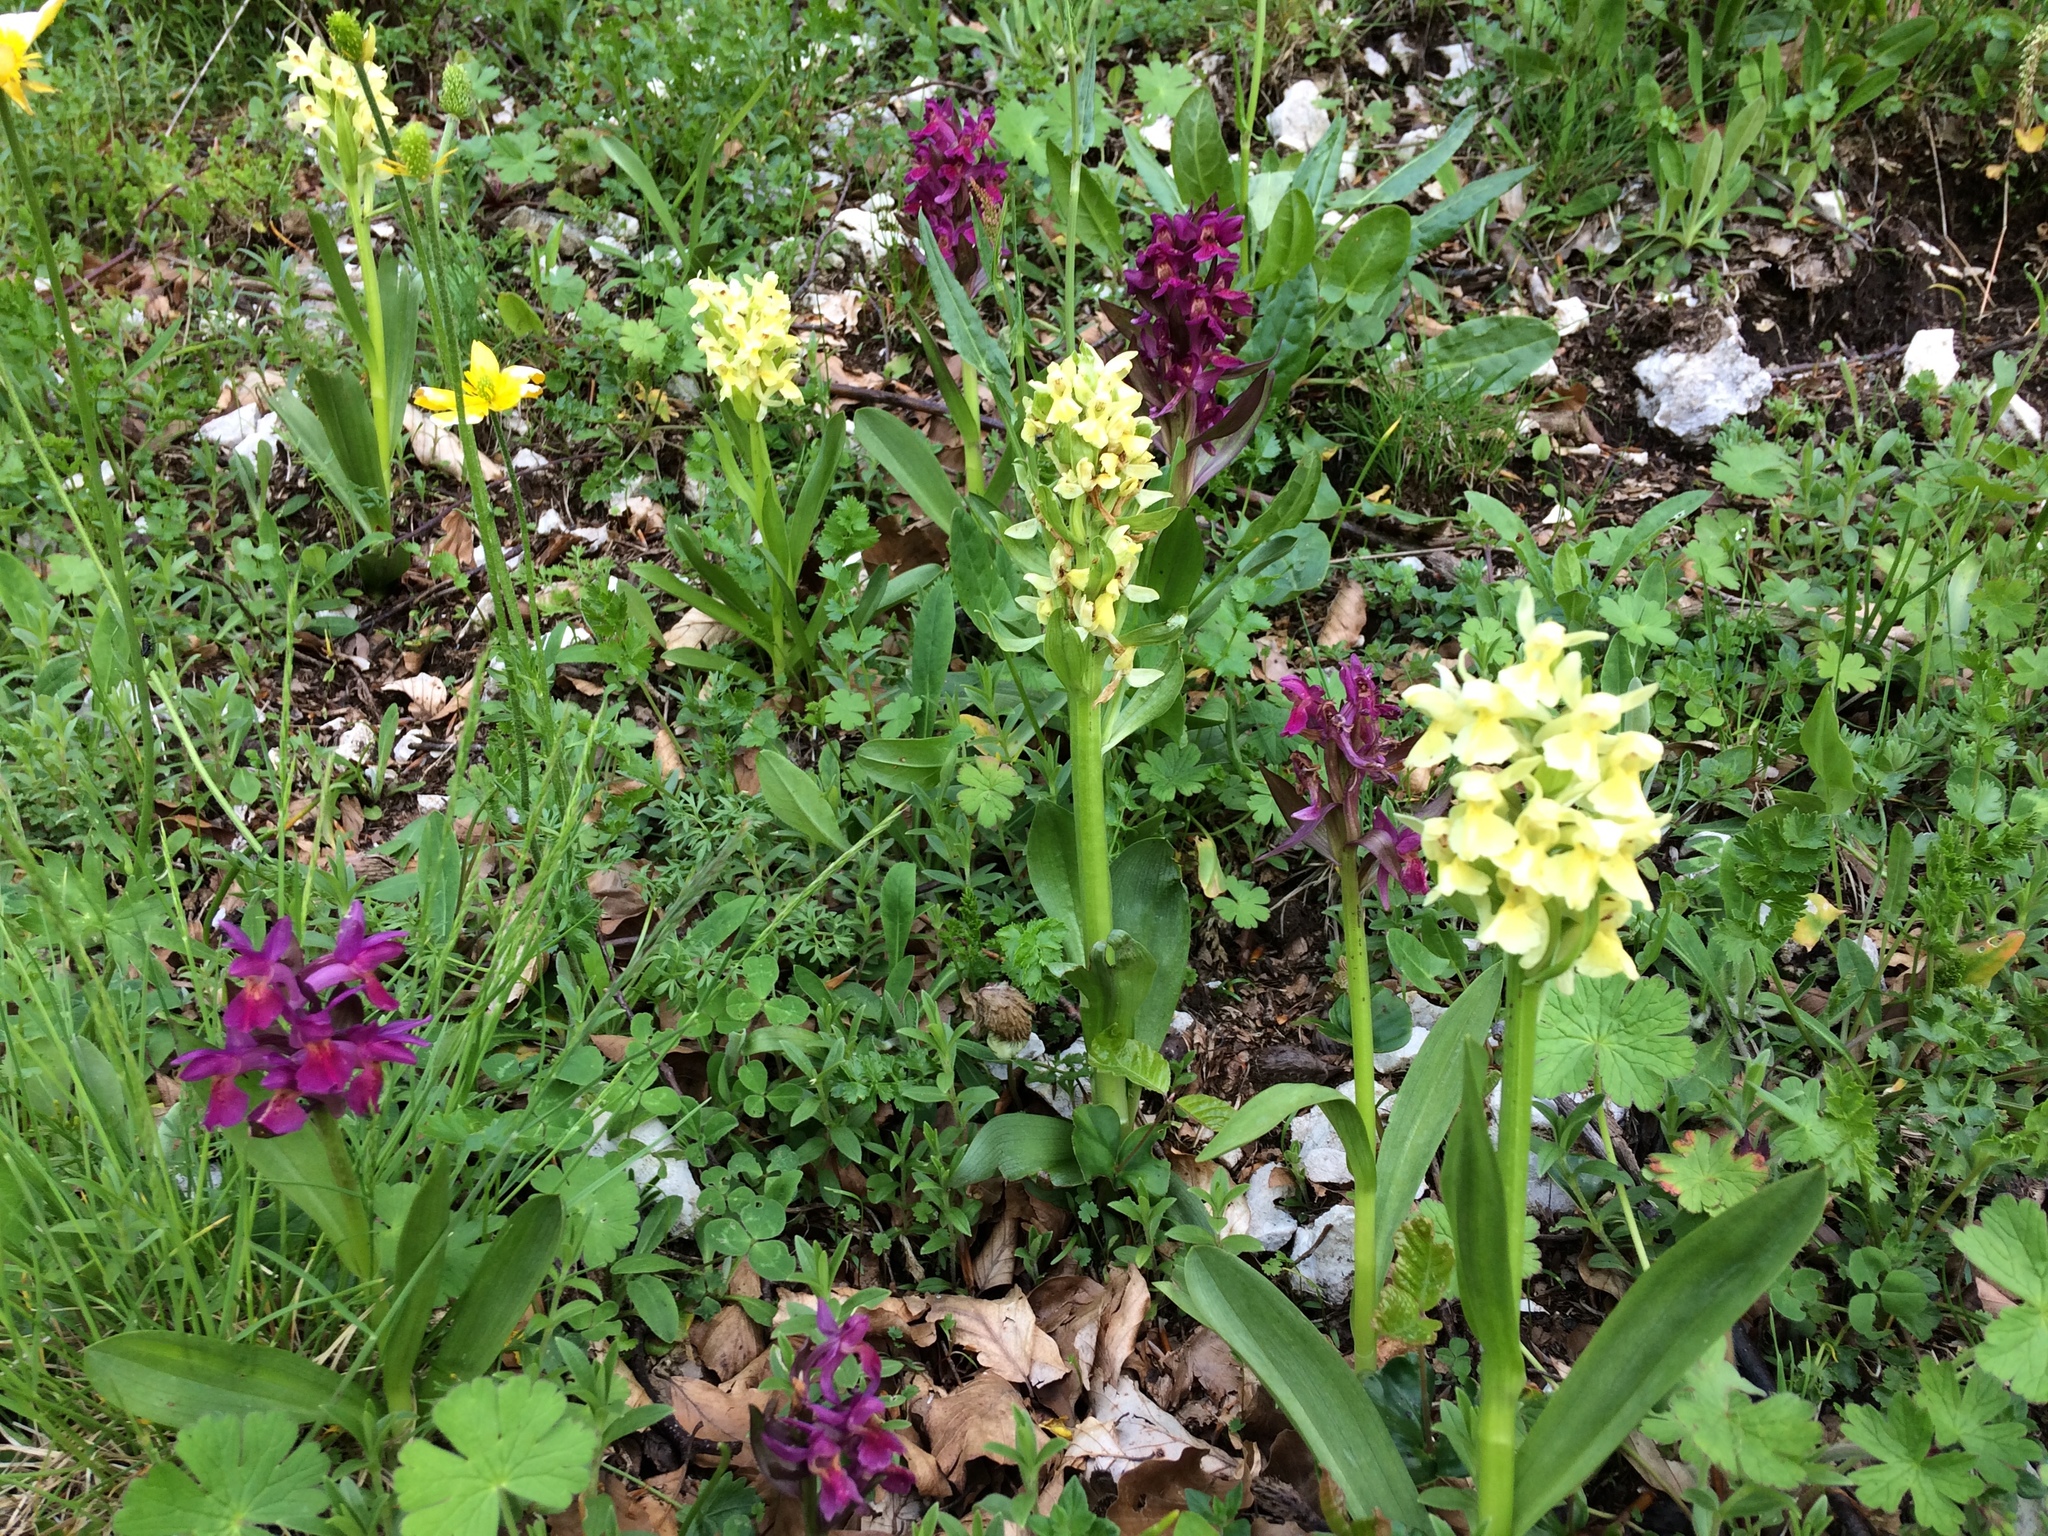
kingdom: Plantae
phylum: Tracheophyta
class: Liliopsida
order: Asparagales
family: Orchidaceae
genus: Dactylorhiza
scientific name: Dactylorhiza sambucina
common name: Elder-flowered orchid
